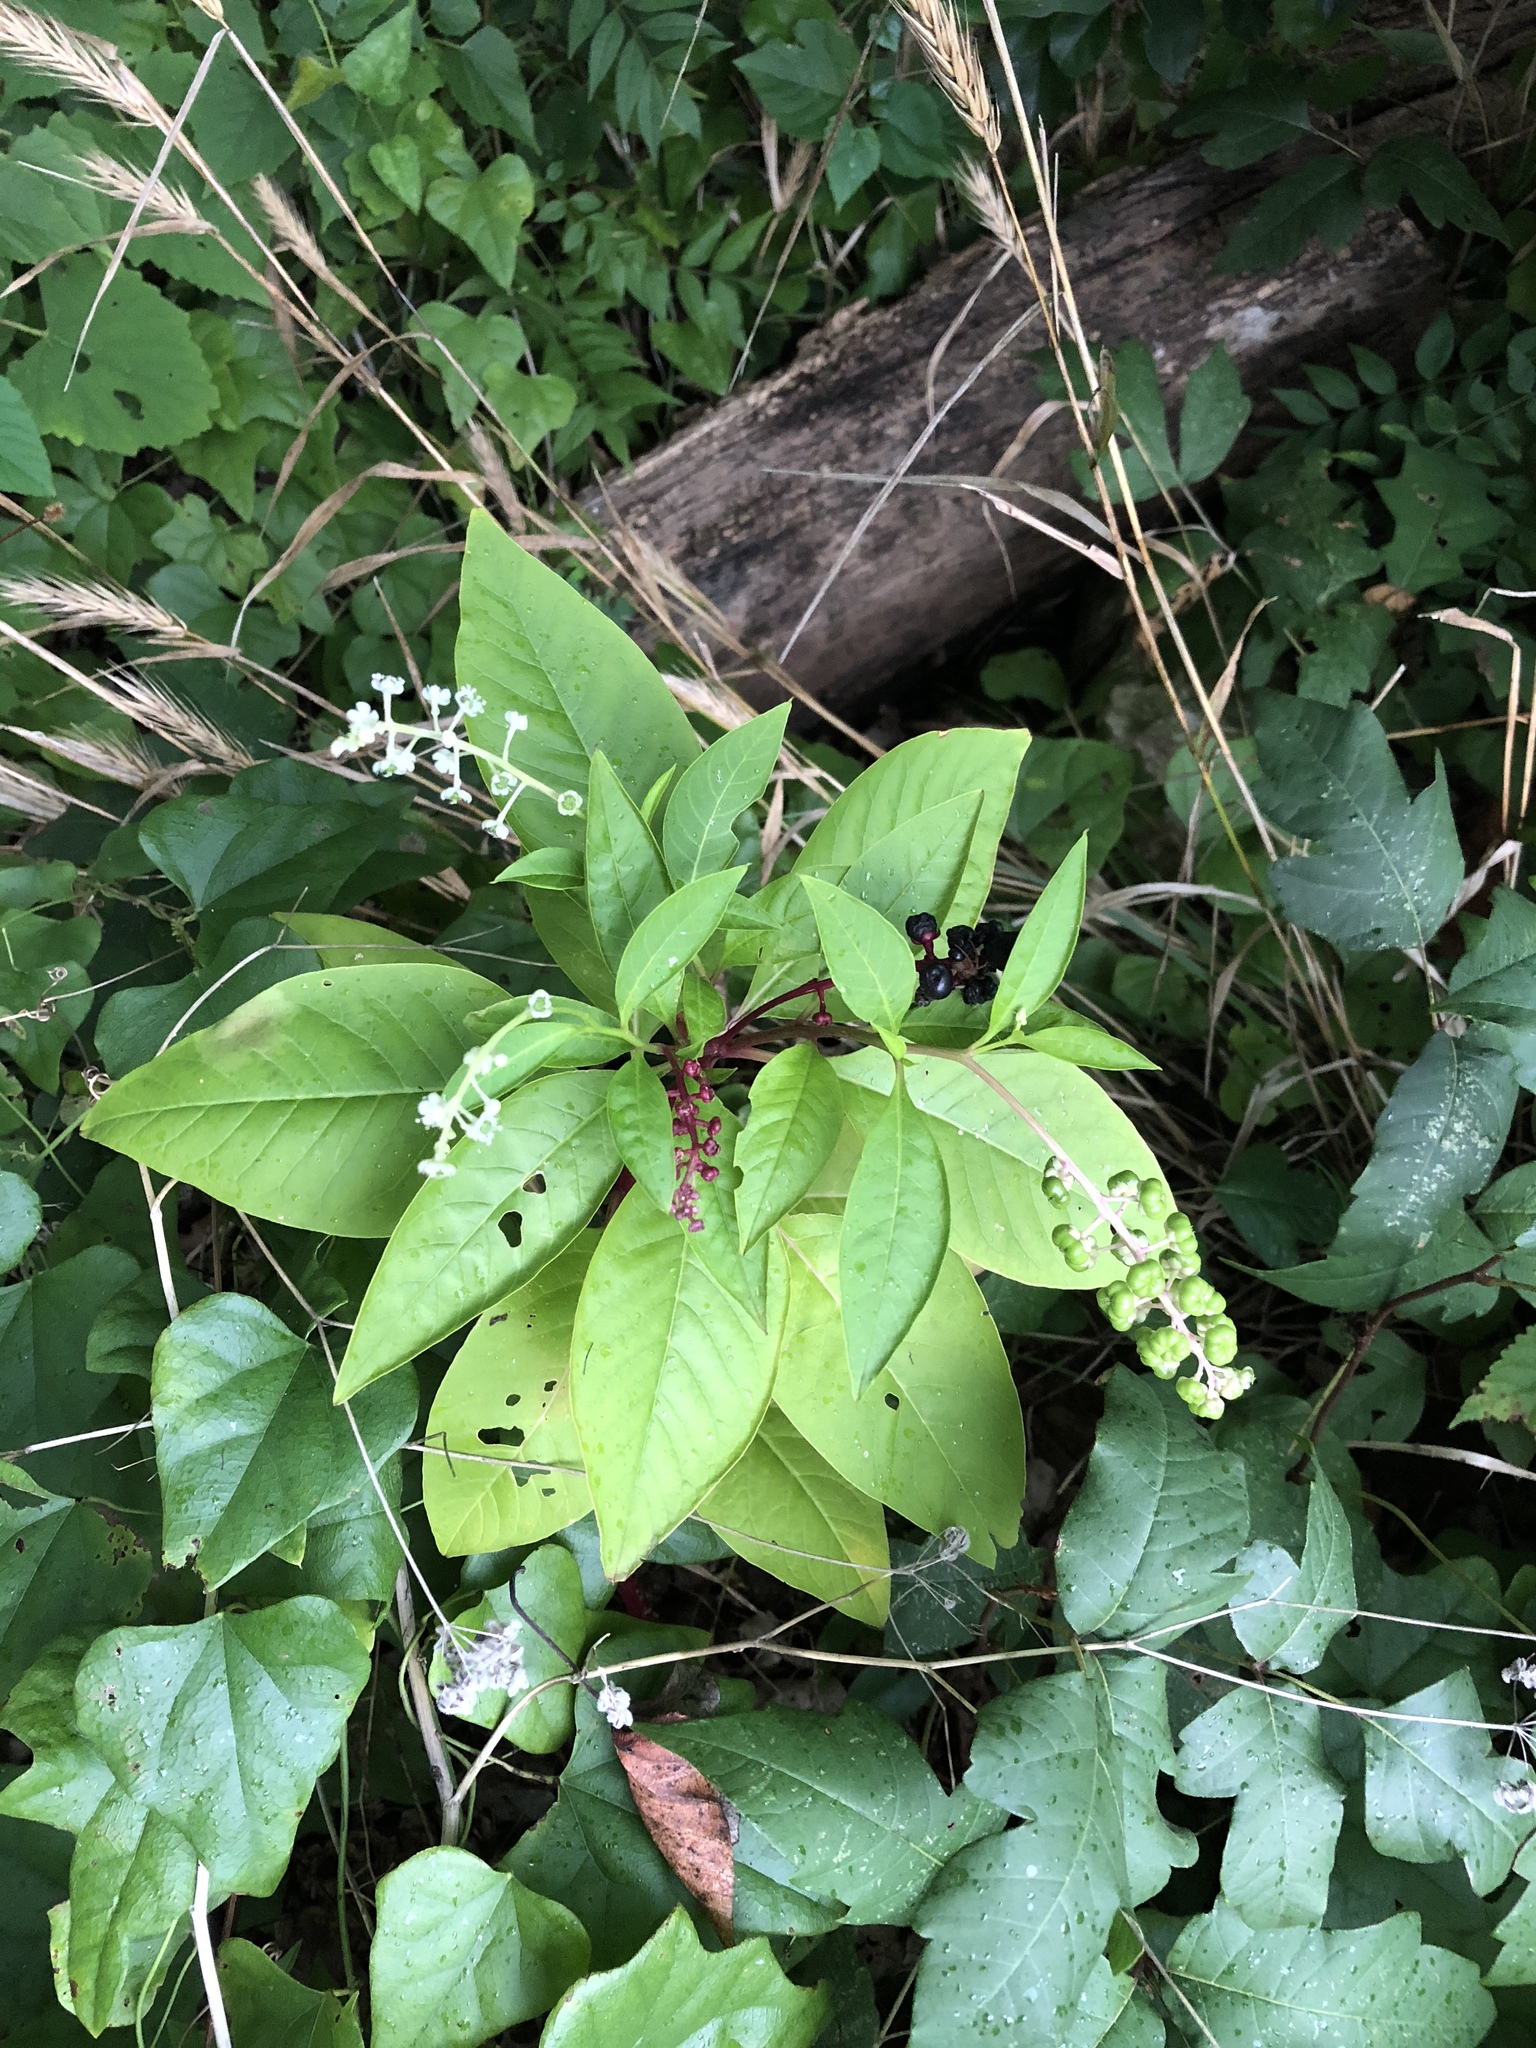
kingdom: Plantae
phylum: Tracheophyta
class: Magnoliopsida
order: Caryophyllales
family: Phytolaccaceae
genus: Phytolacca
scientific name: Phytolacca americana
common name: American pokeweed
